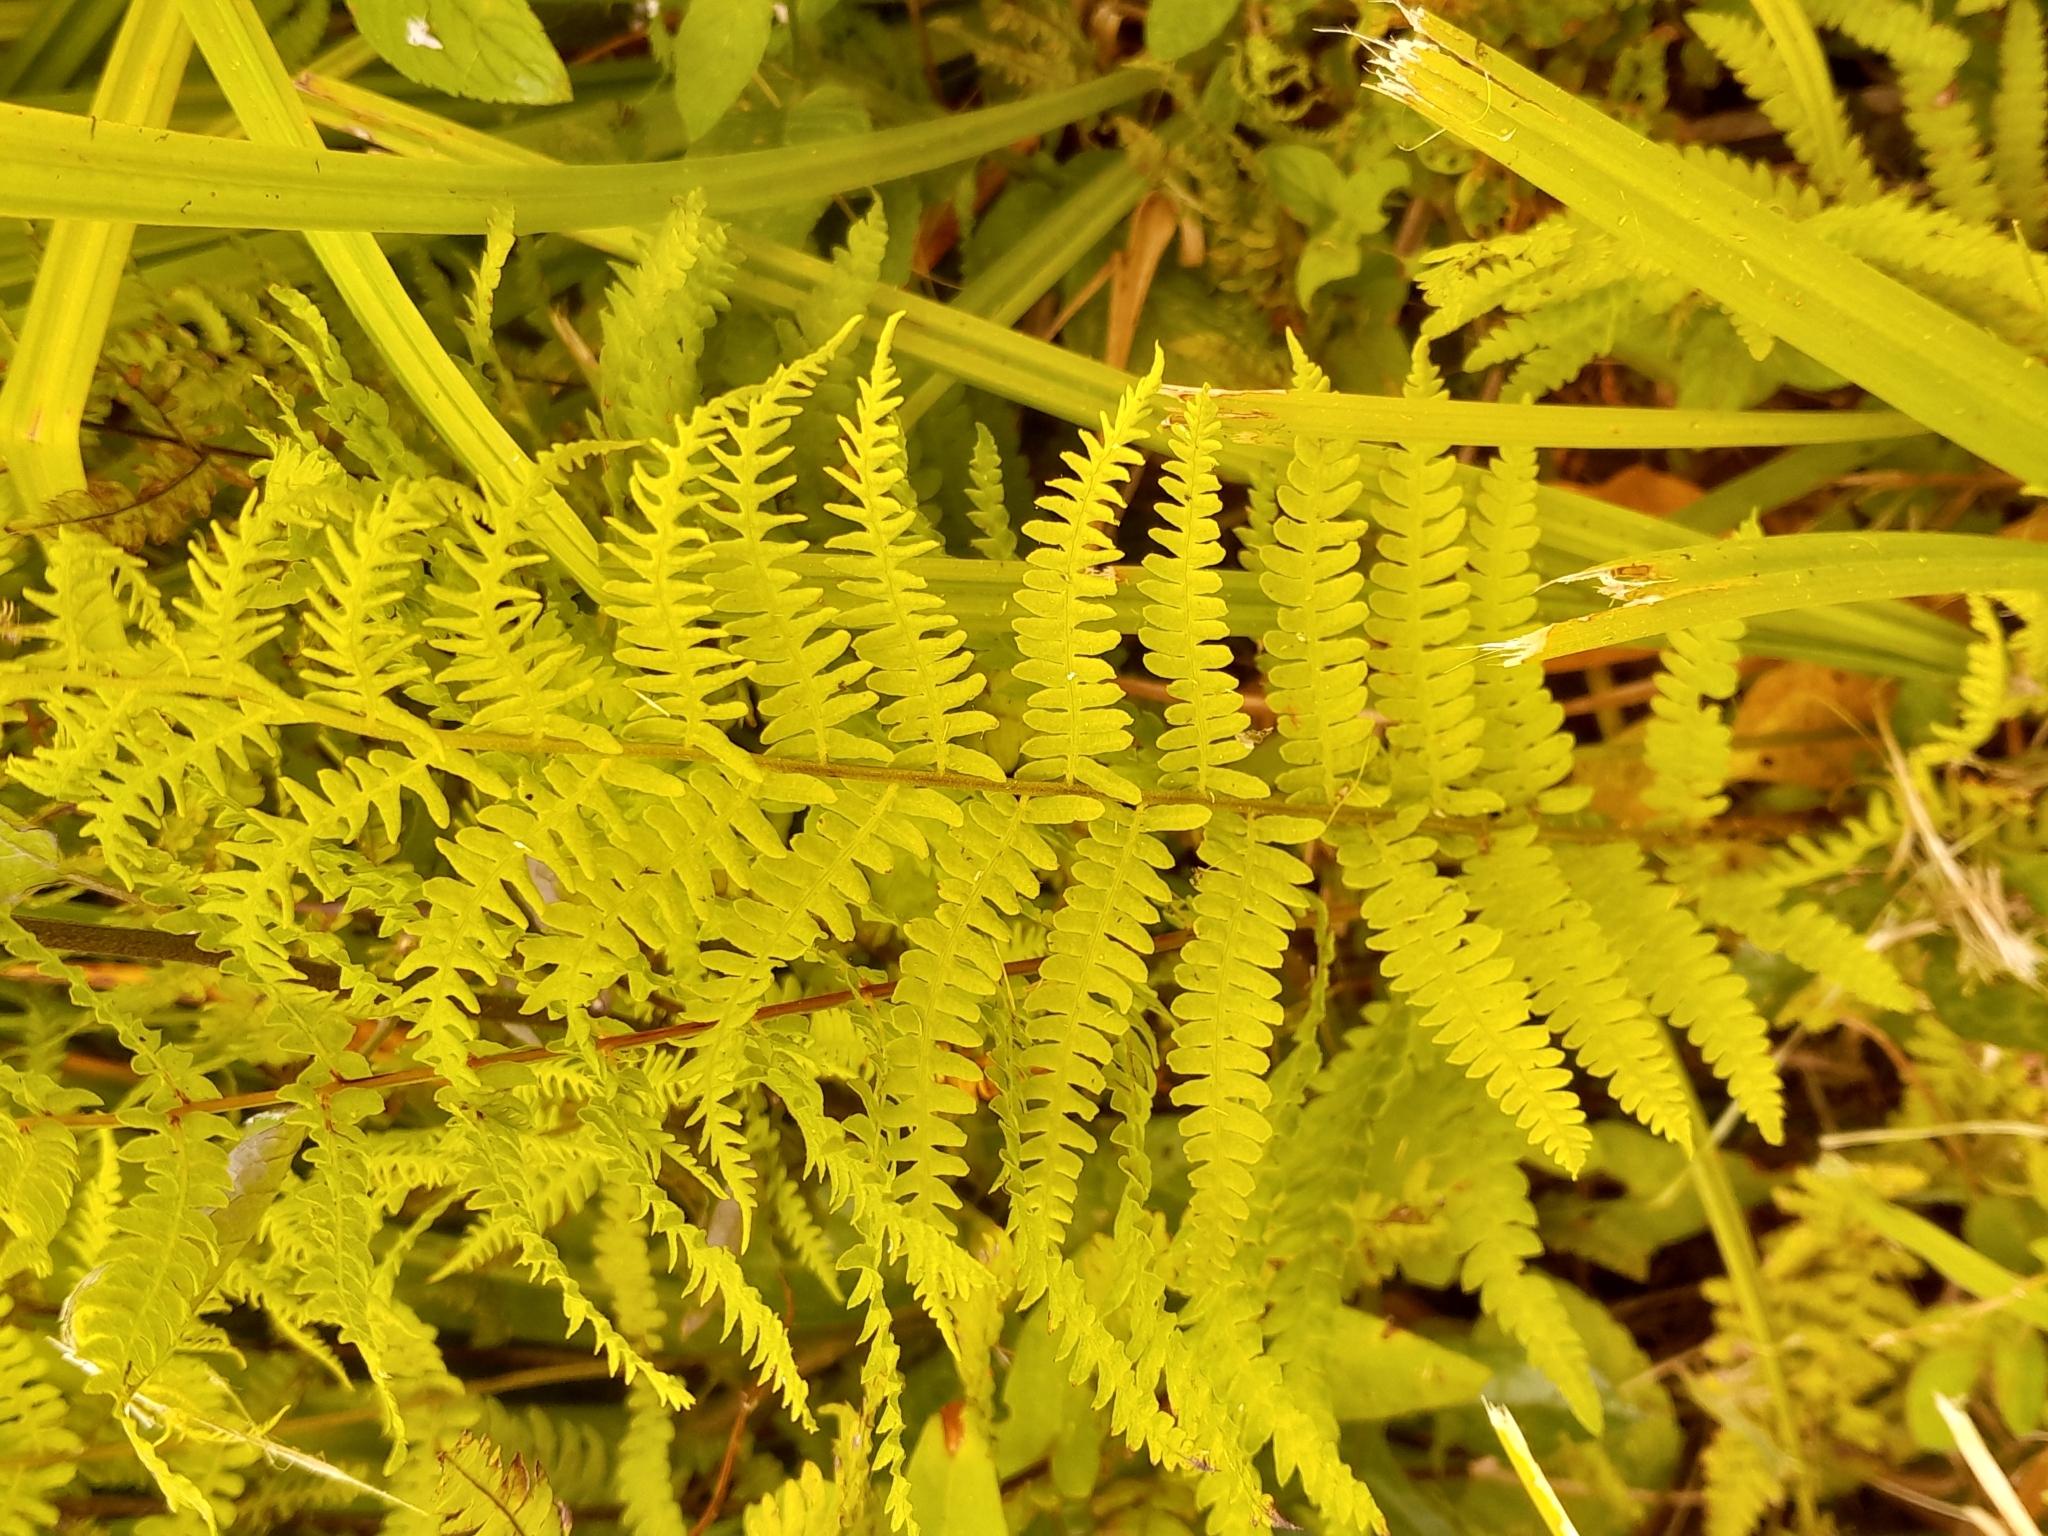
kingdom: Plantae
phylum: Tracheophyta
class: Polypodiopsida
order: Polypodiales
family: Thelypteridaceae
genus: Thelypteris
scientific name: Thelypteris palustris
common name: Marsh fern
